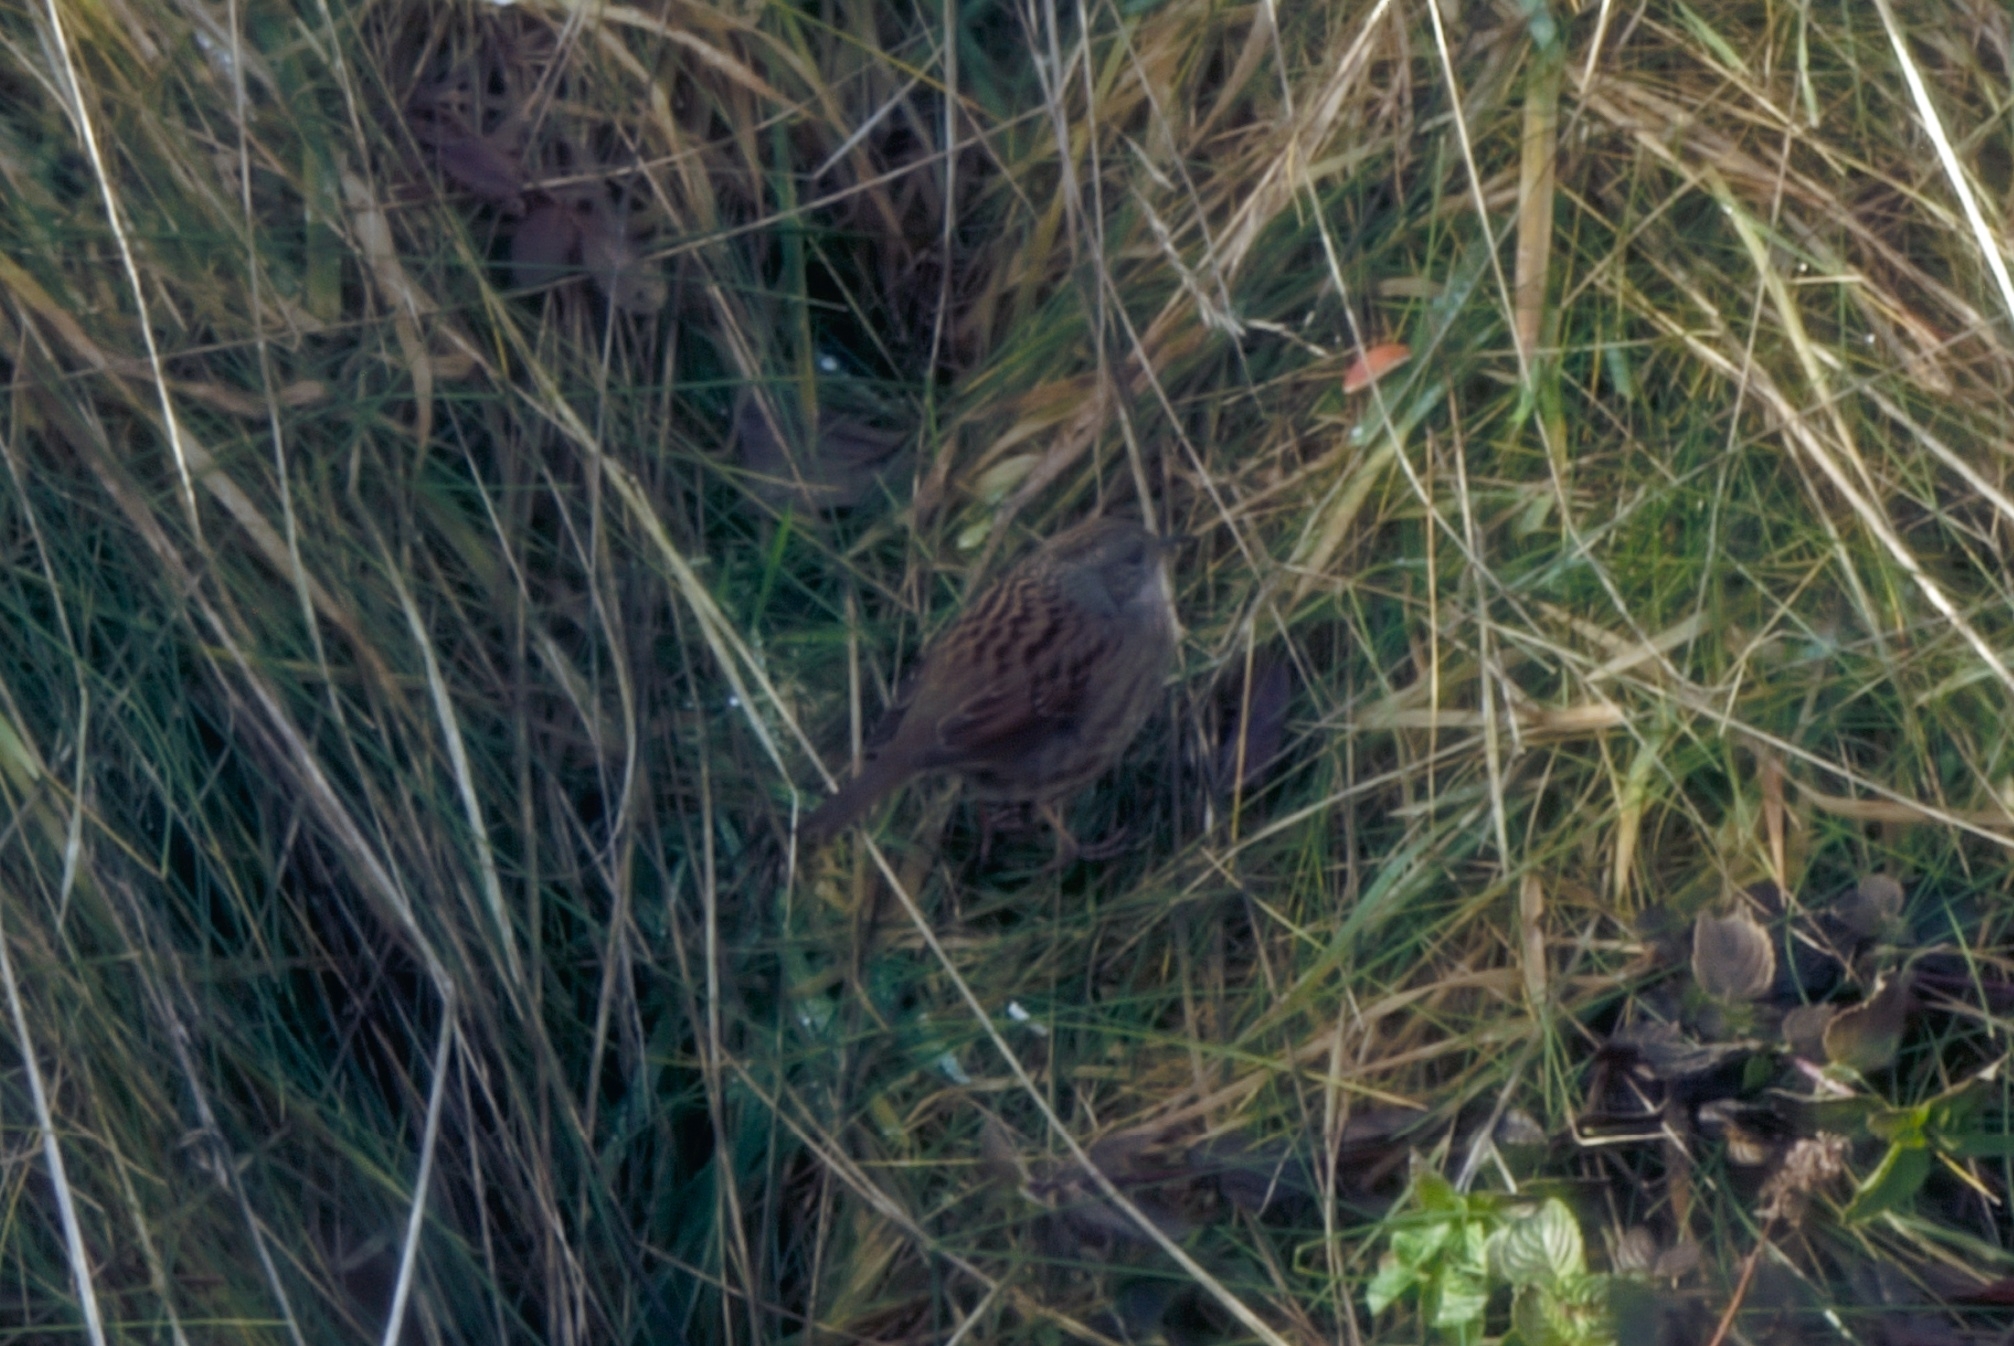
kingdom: Animalia
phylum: Chordata
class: Aves
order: Passeriformes
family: Prunellidae
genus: Prunella
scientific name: Prunella modularis
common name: Dunnock
